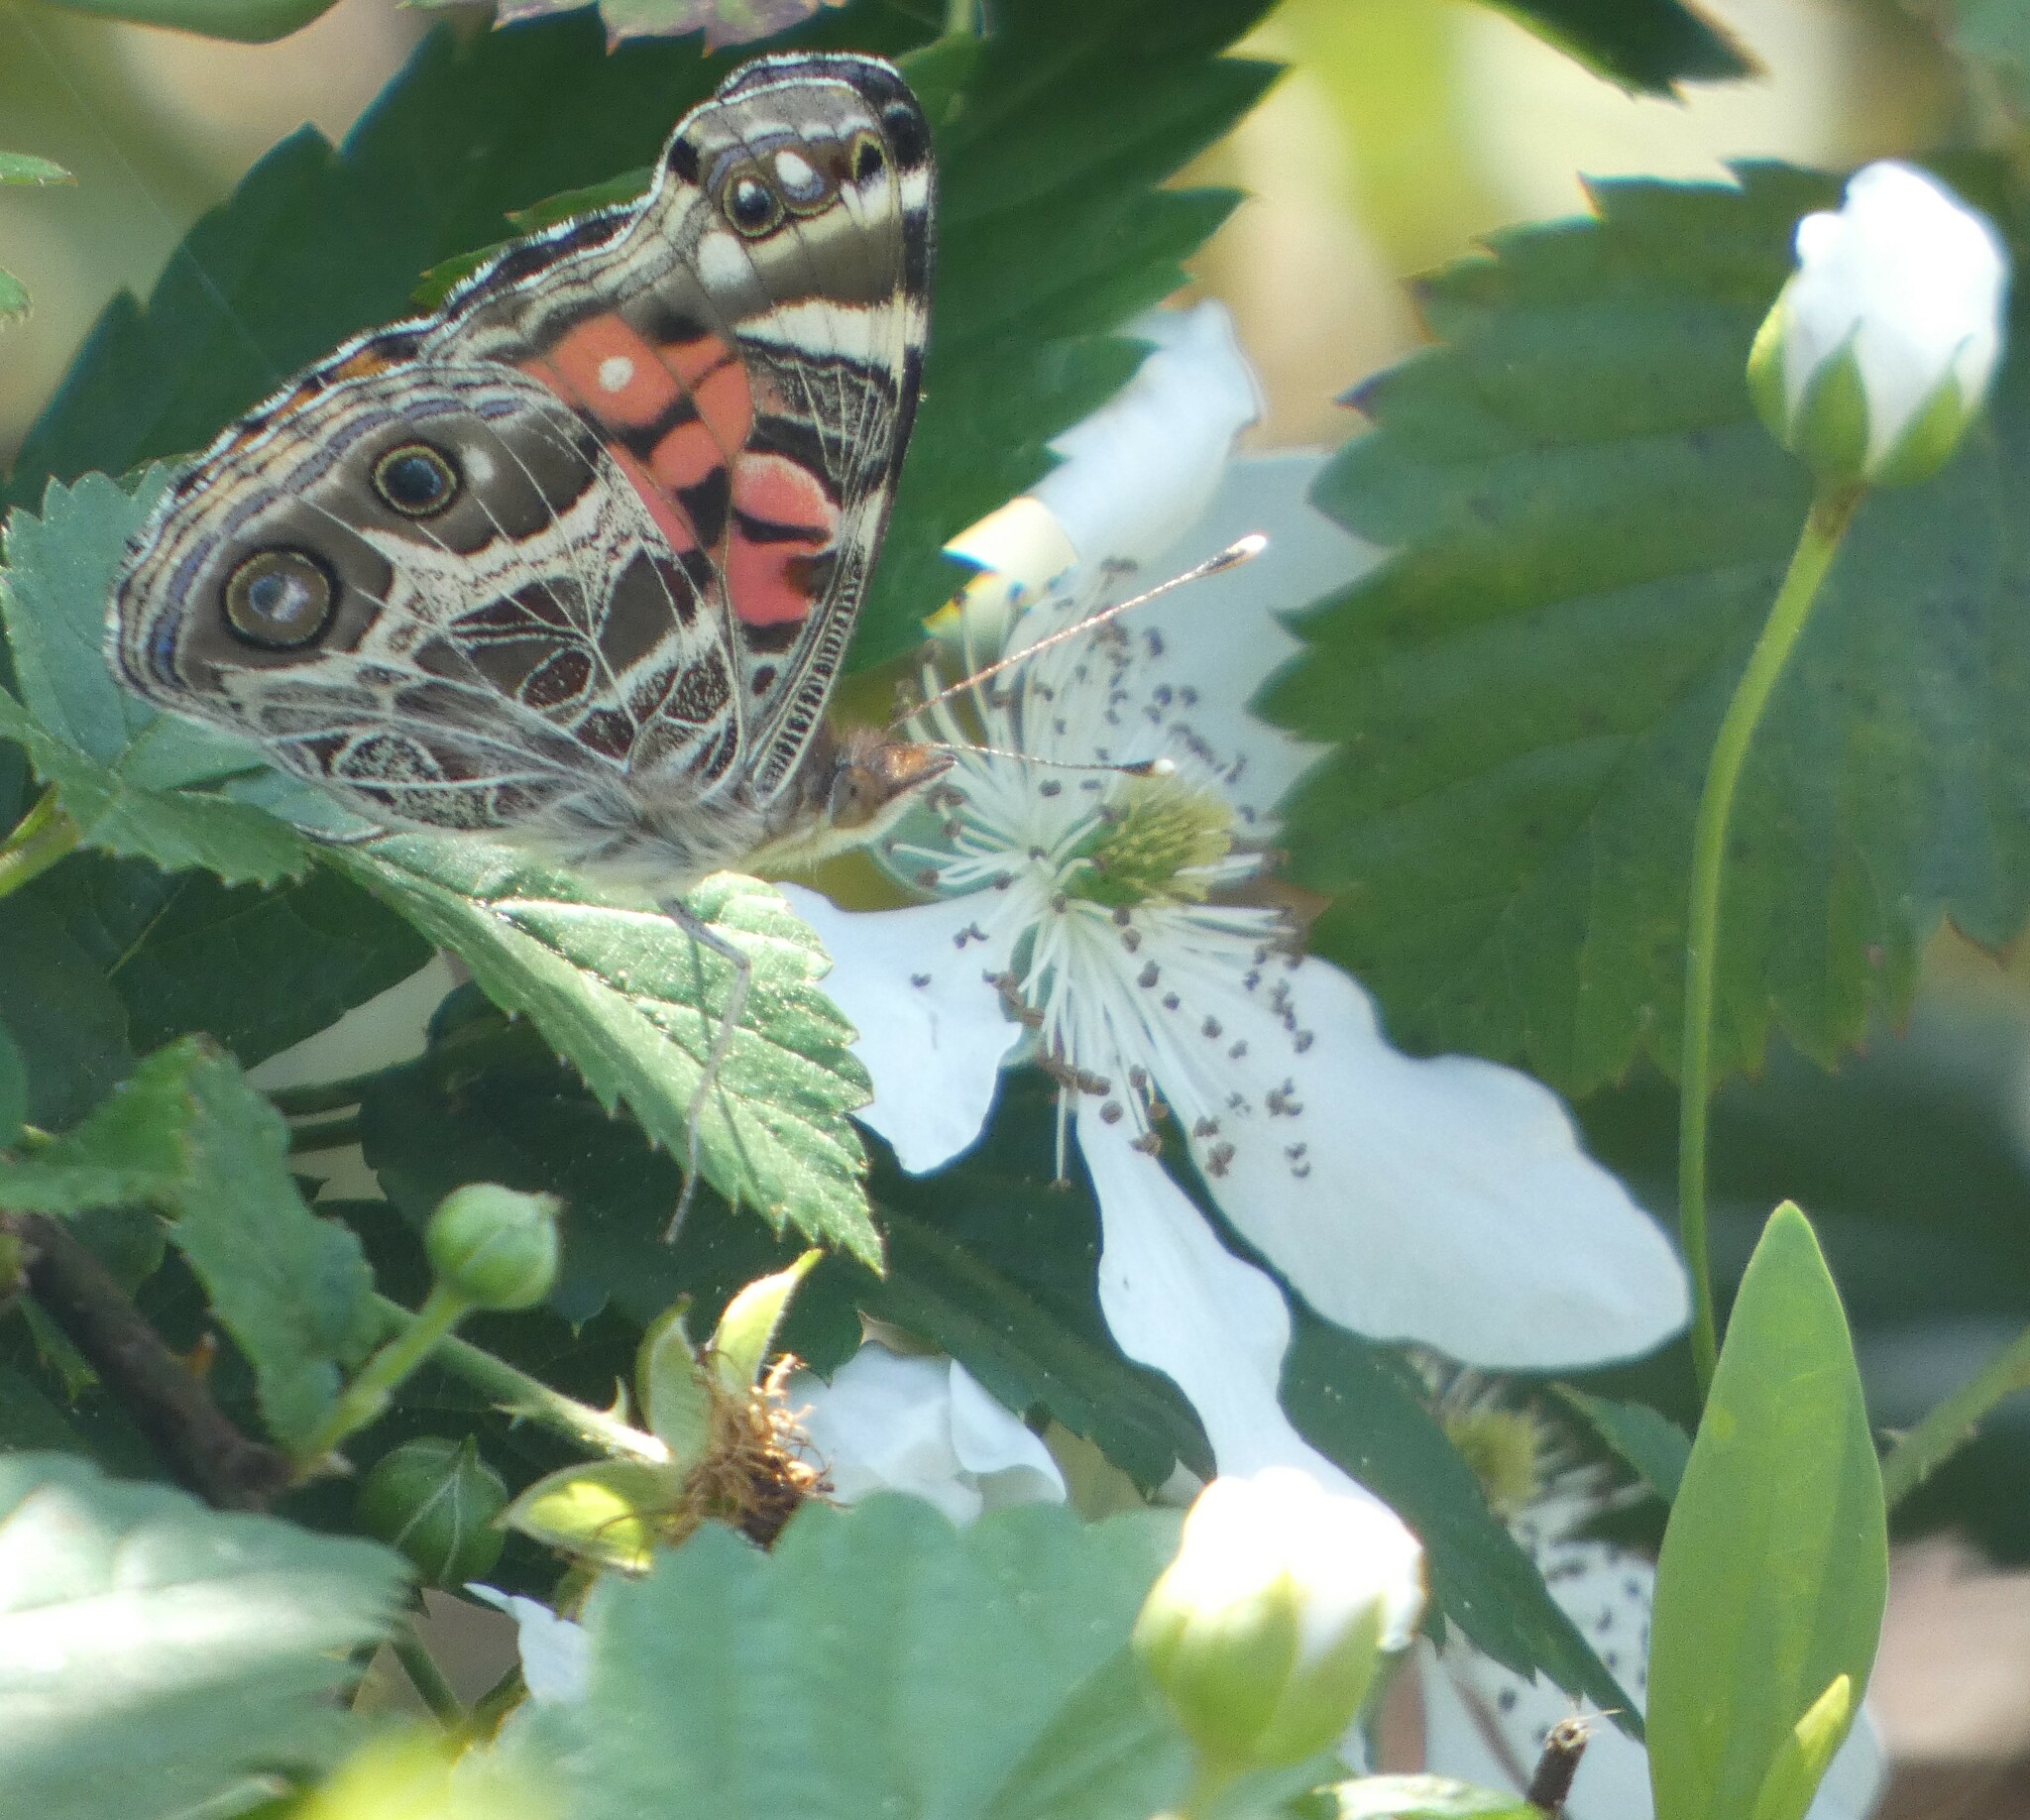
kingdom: Animalia
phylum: Arthropoda
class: Insecta
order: Lepidoptera
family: Nymphalidae
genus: Vanessa
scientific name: Vanessa virginiensis
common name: American lady
